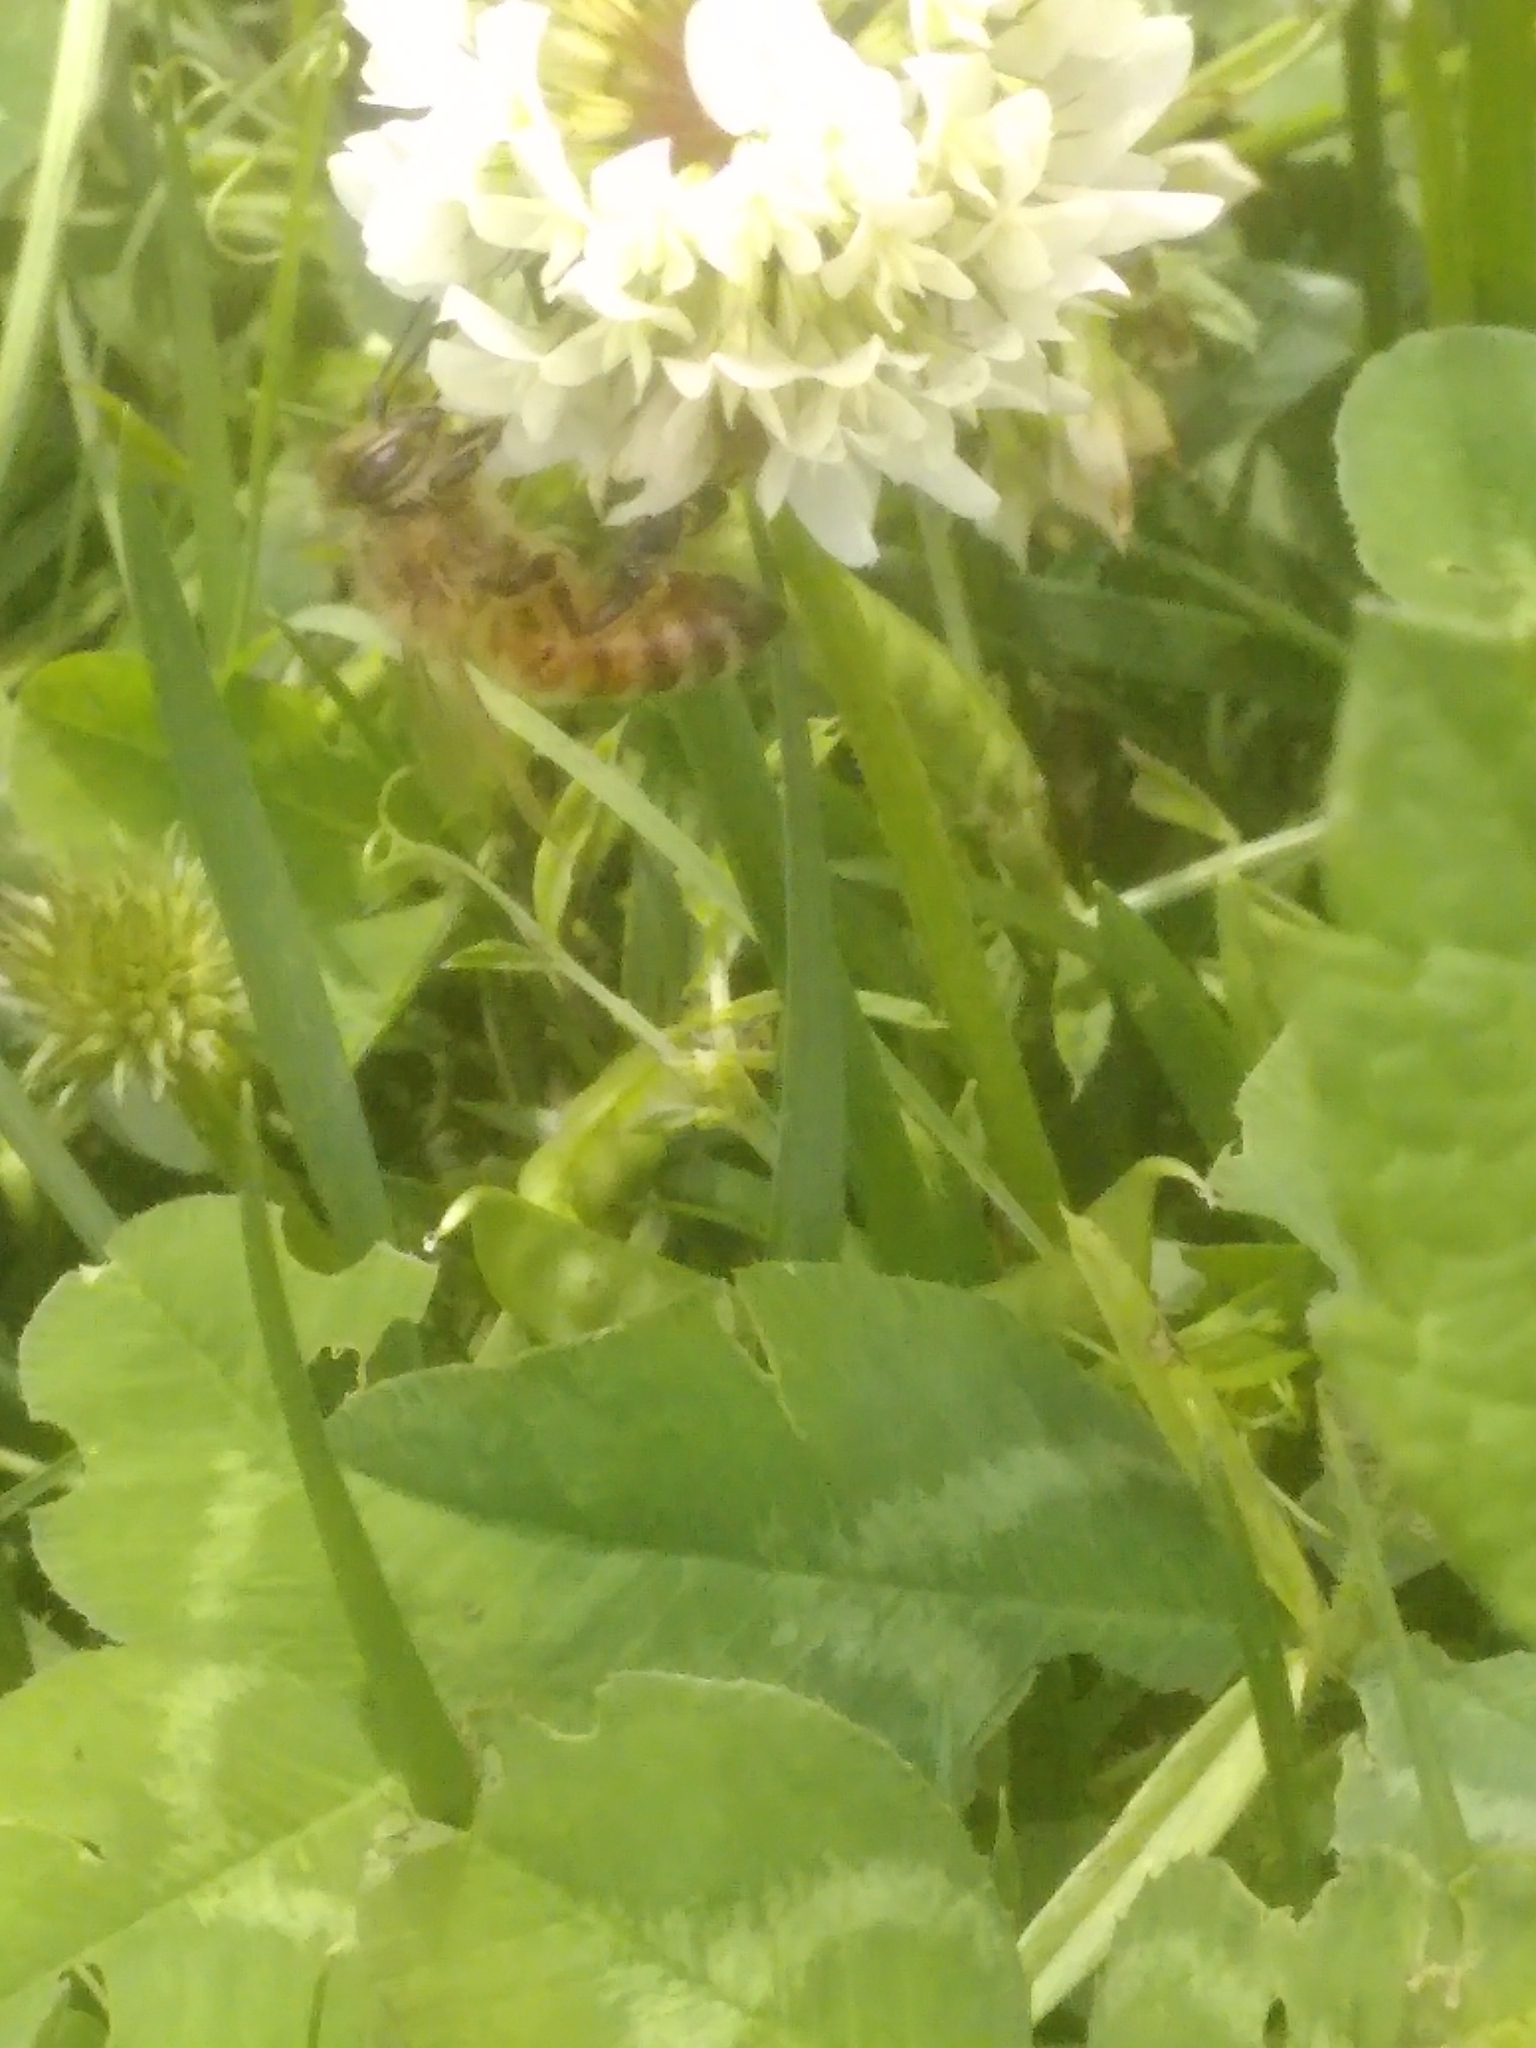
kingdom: Animalia
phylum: Arthropoda
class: Insecta
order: Hymenoptera
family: Apidae
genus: Apis
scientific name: Apis mellifera
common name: Honey bee
